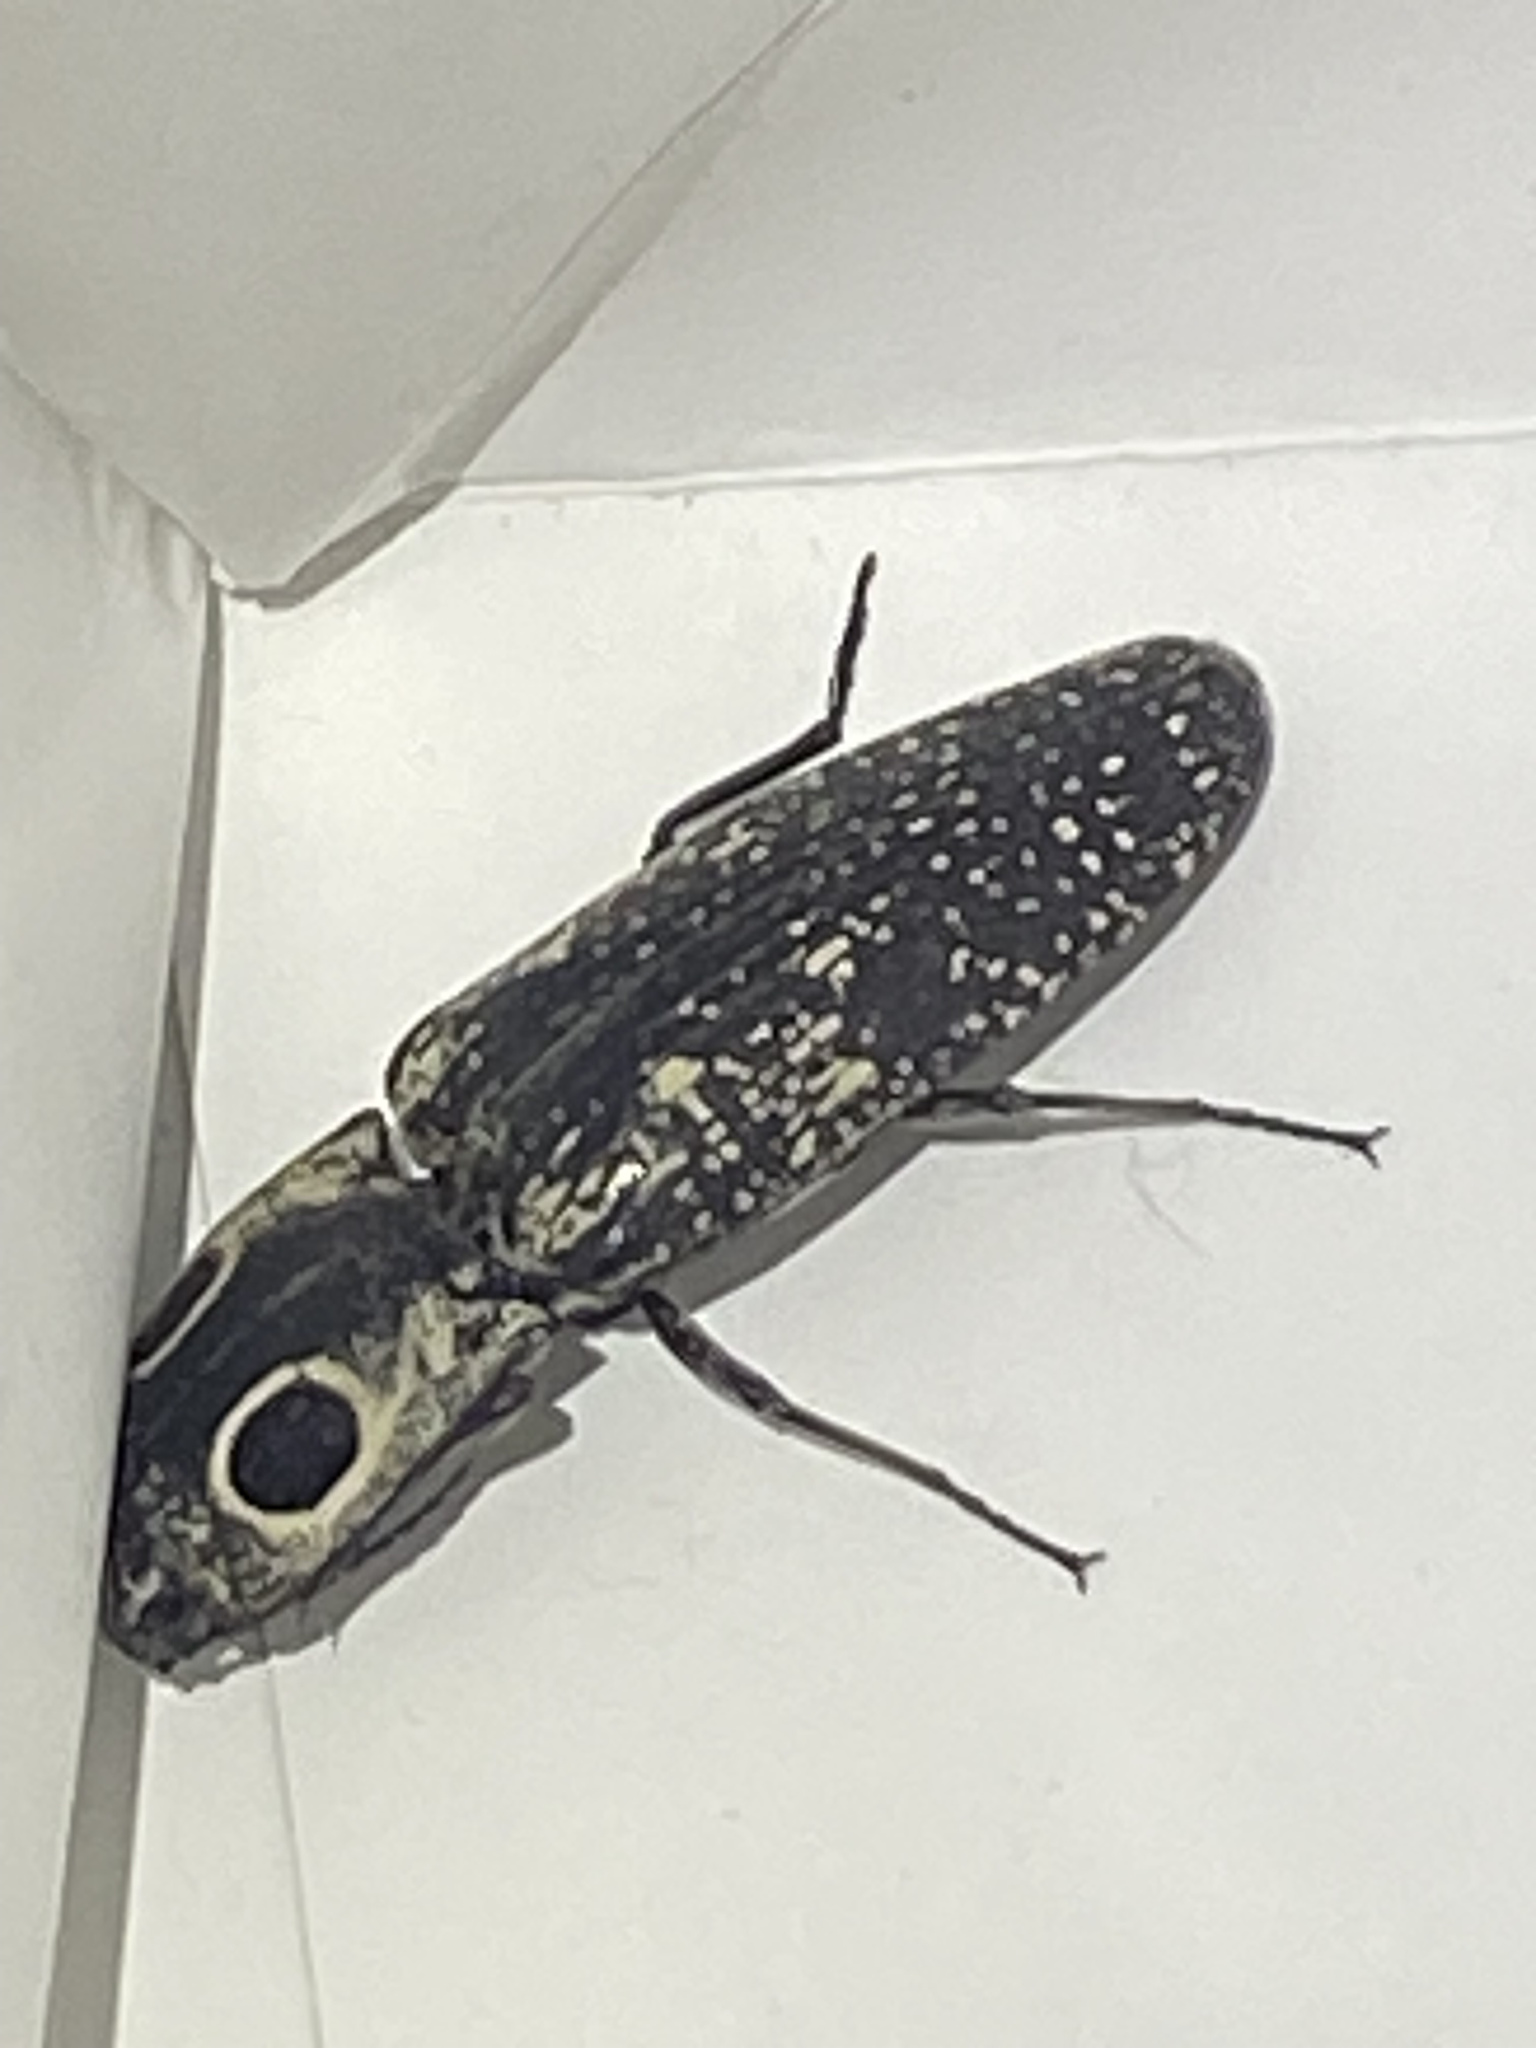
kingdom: Animalia
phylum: Arthropoda
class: Insecta
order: Coleoptera
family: Elateridae
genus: Alaus
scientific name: Alaus oculatus
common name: Eastern eyed click beetle
